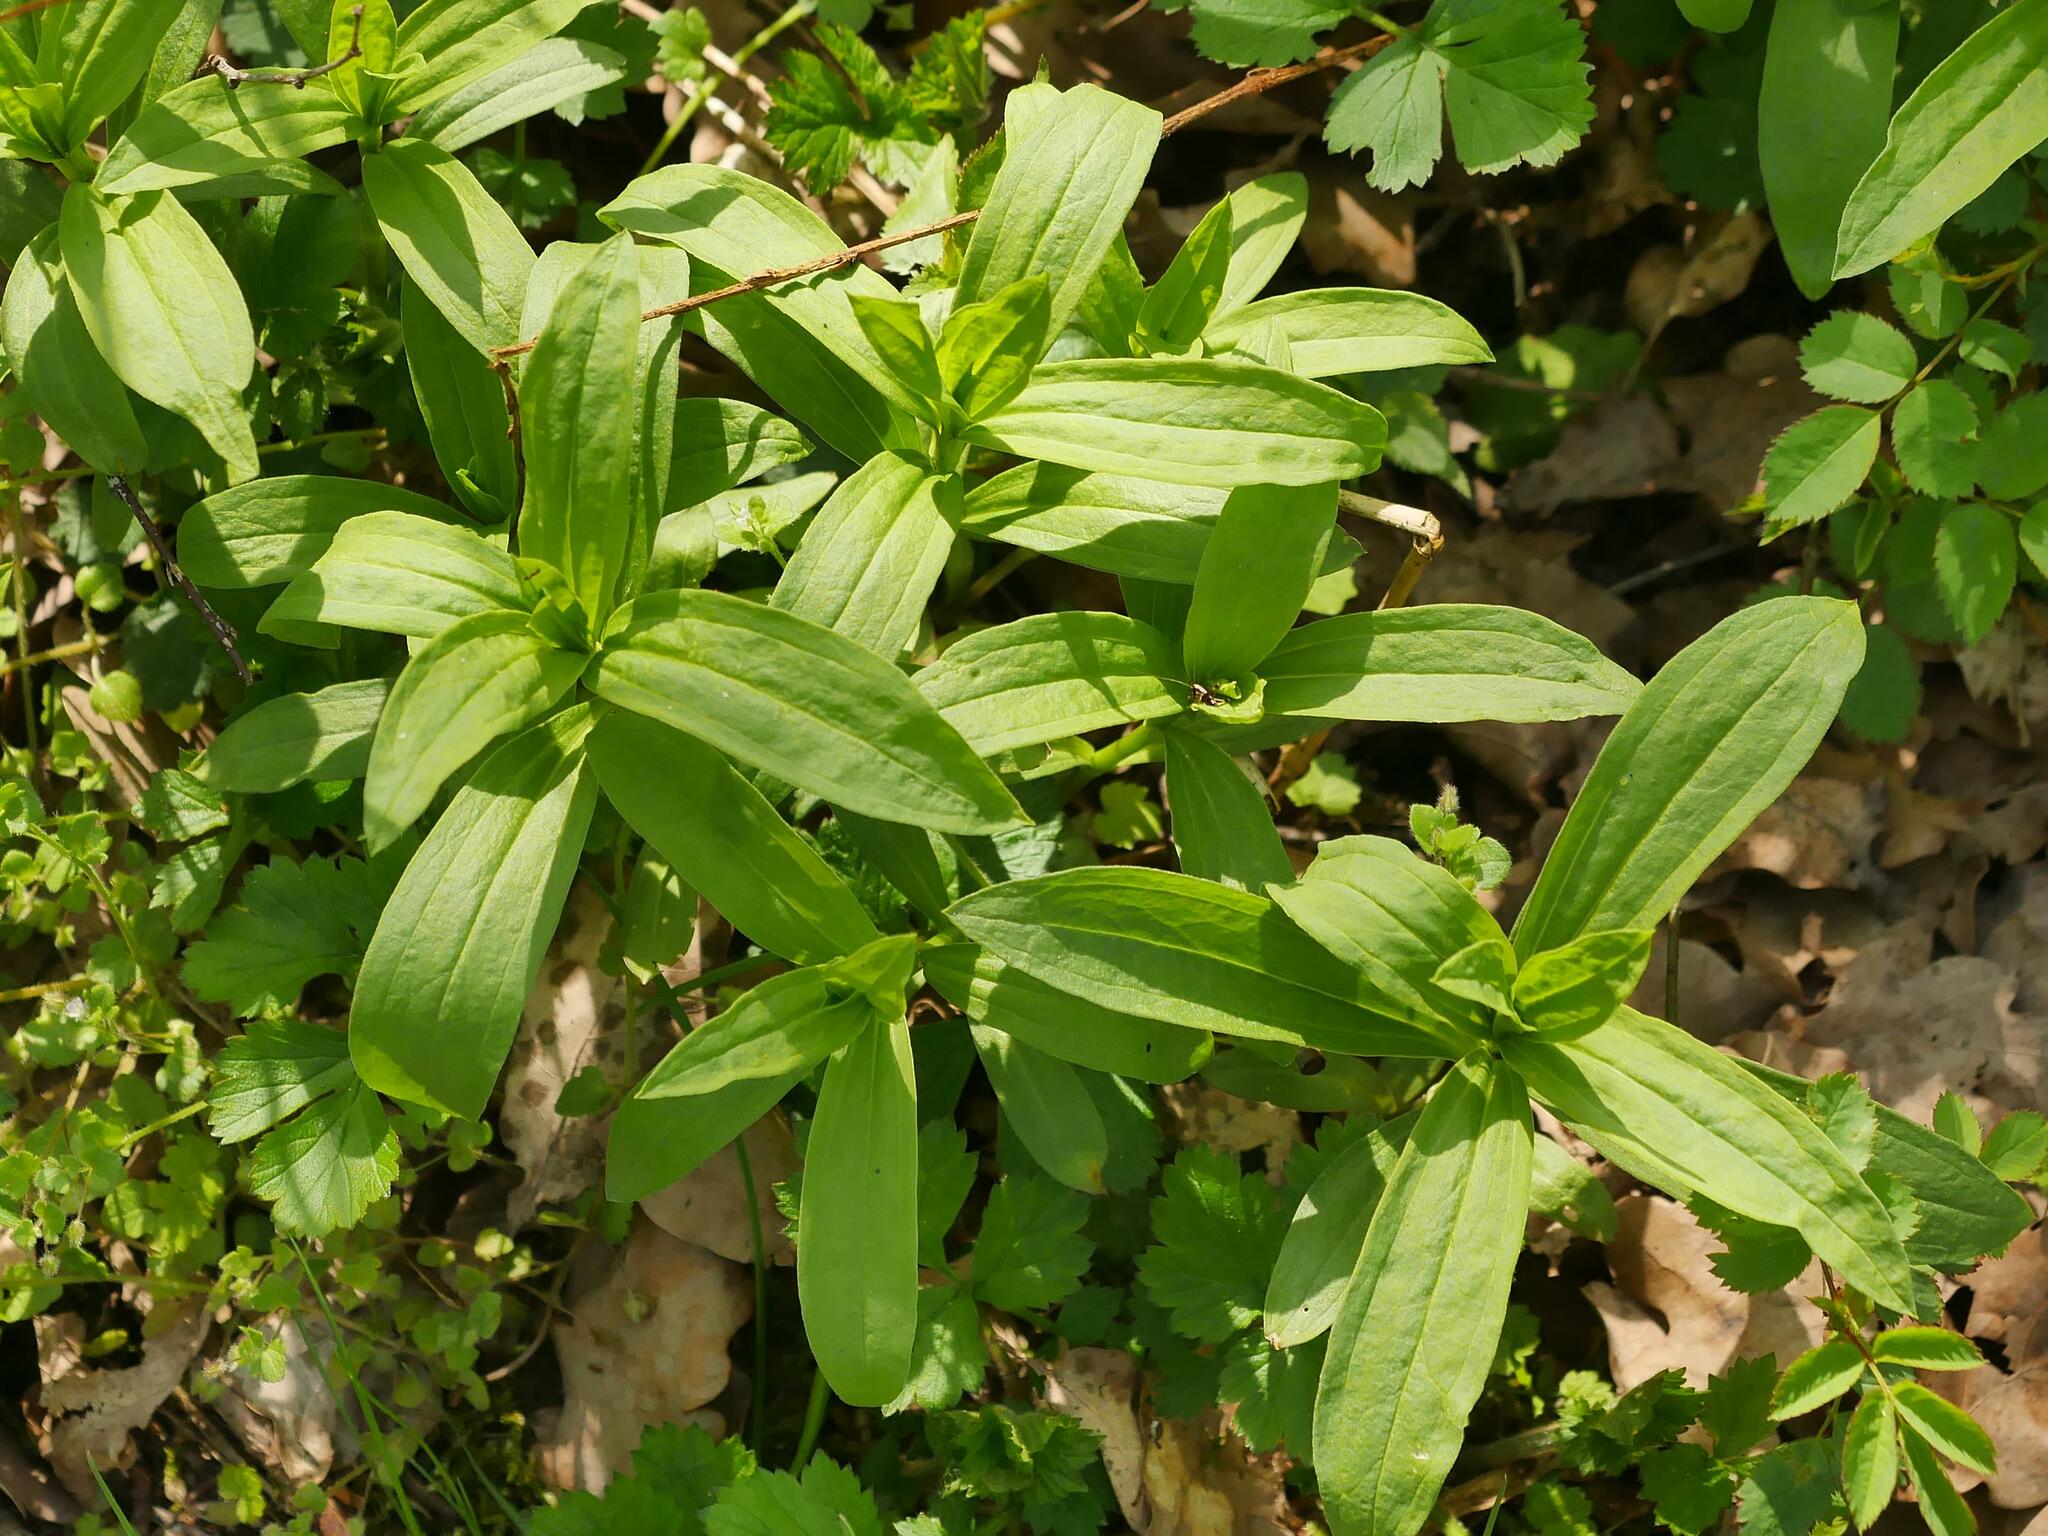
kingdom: Plantae
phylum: Tracheophyta
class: Magnoliopsida
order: Caryophyllales
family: Caryophyllaceae
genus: Saponaria
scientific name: Saponaria officinalis
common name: Soapwort
